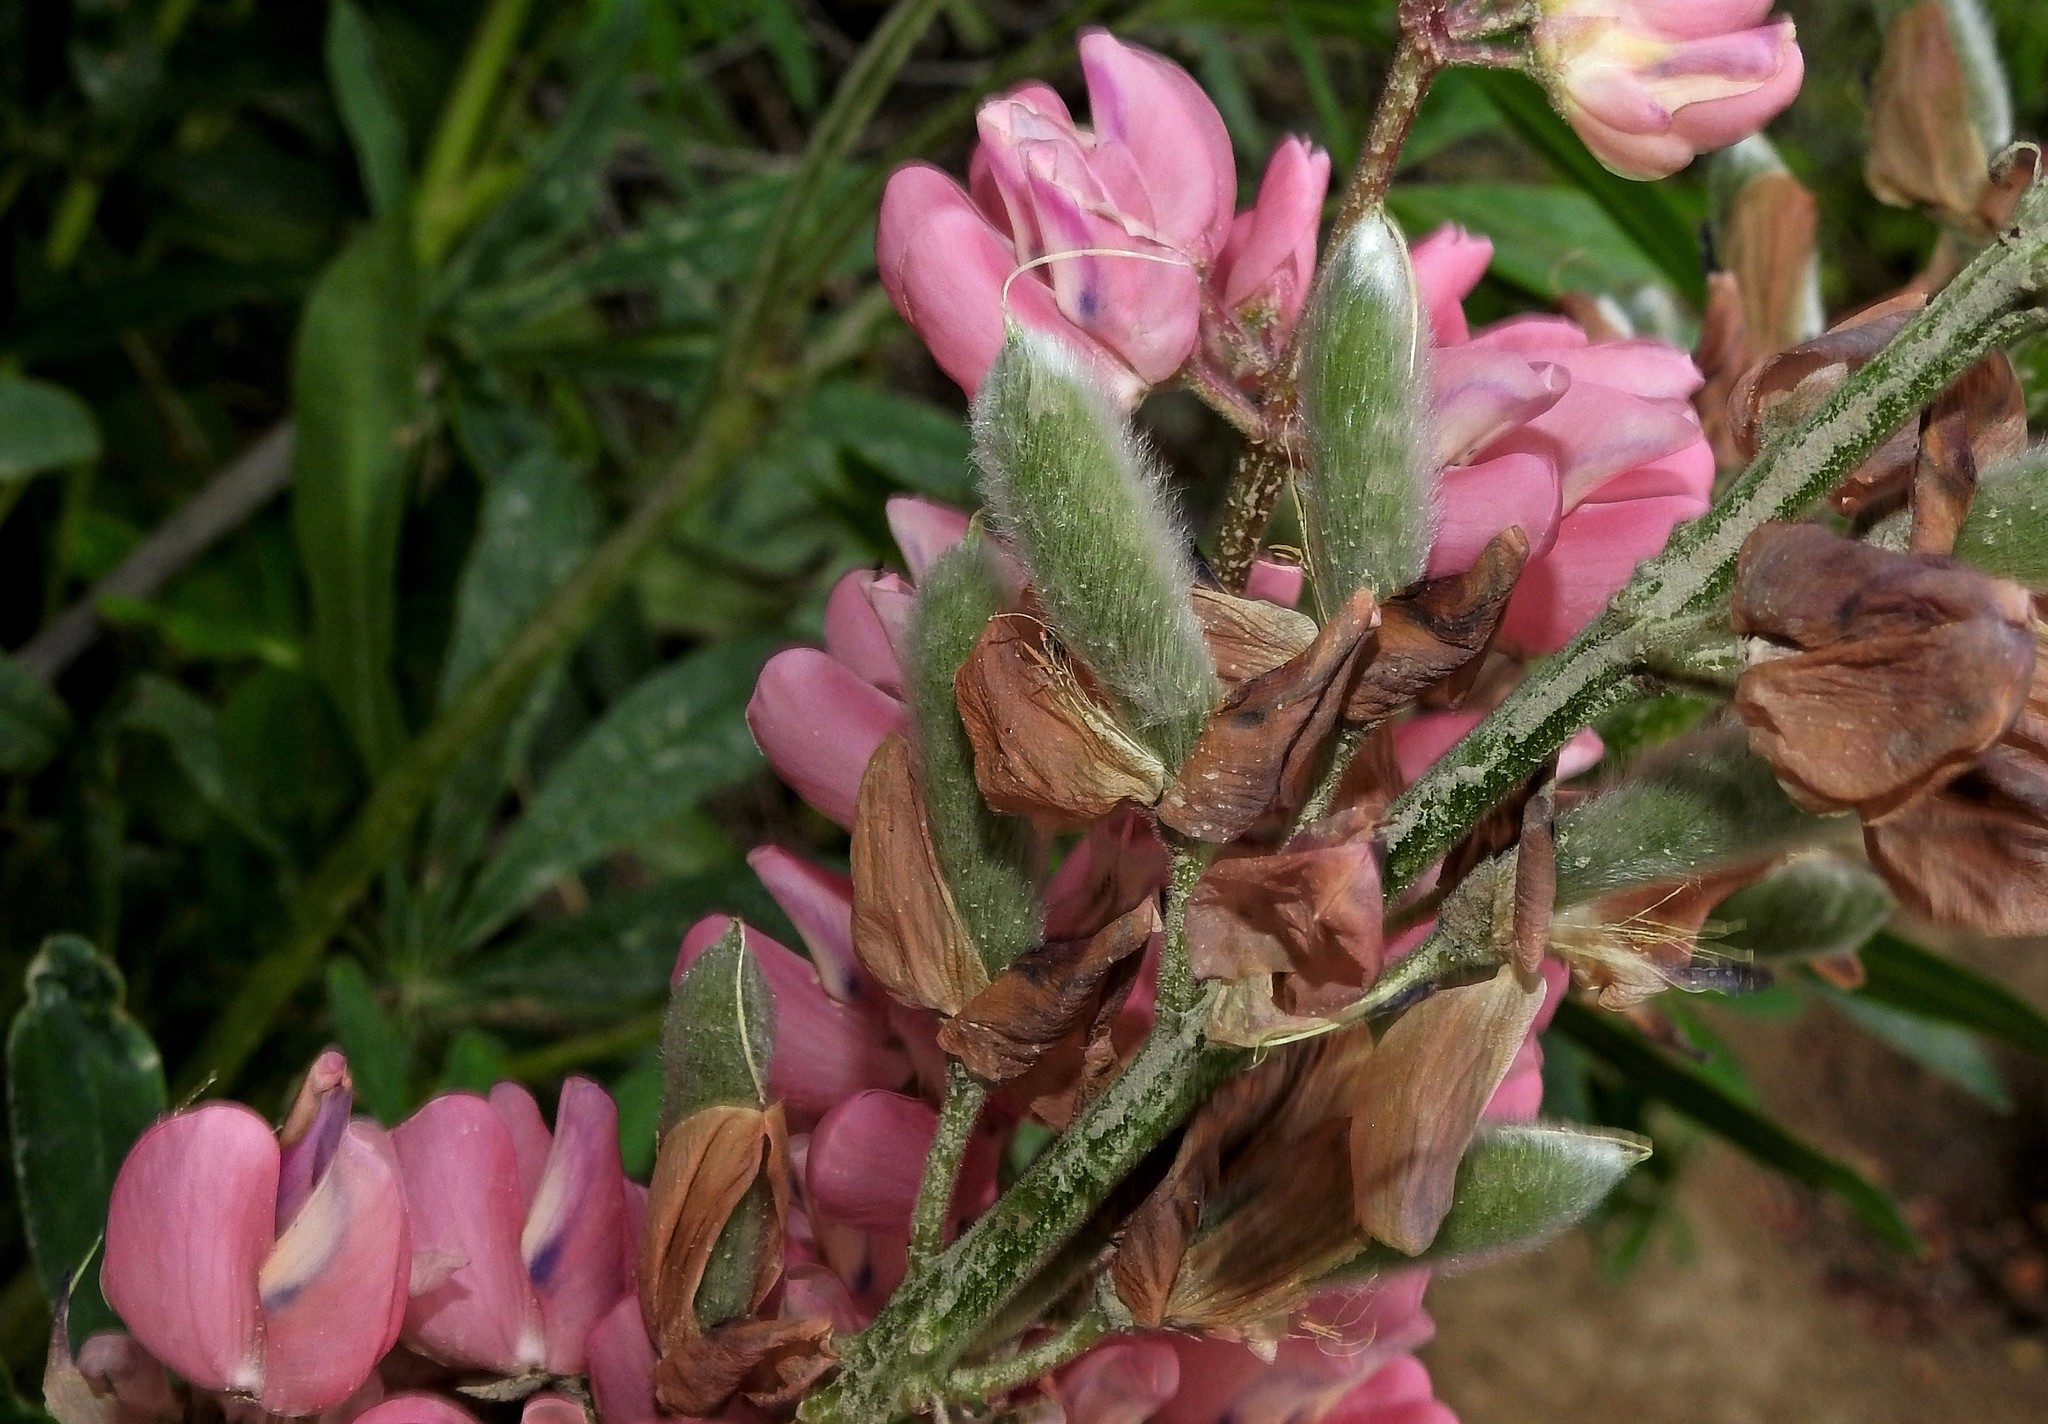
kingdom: Plantae
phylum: Tracheophyta
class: Magnoliopsida
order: Fabales
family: Fabaceae
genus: Lupinus
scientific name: Lupinus polyphyllus
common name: Garden lupin
